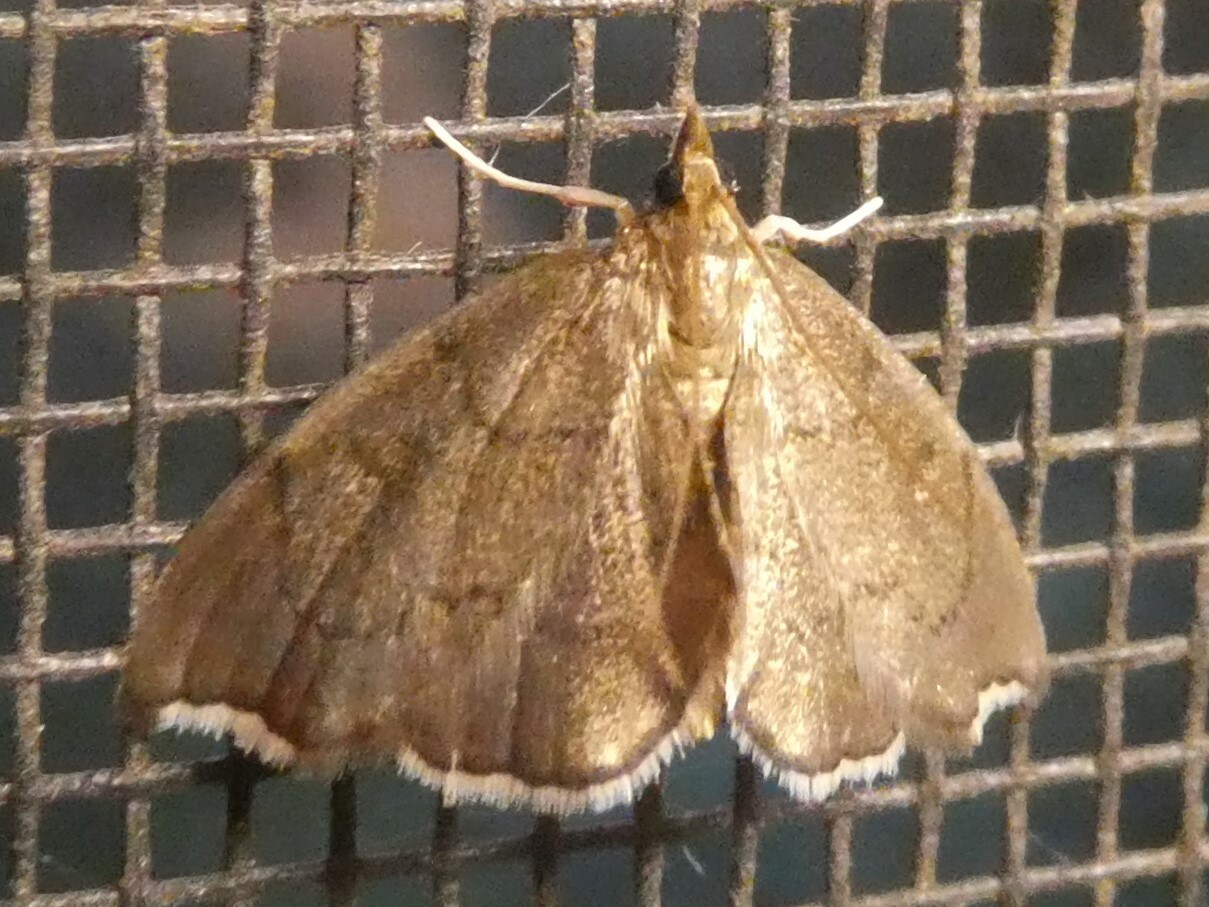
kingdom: Animalia
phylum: Arthropoda
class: Insecta
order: Lepidoptera
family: Crambidae
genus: Perispasta
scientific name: Perispasta caeculalis
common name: Titian peale's moth
